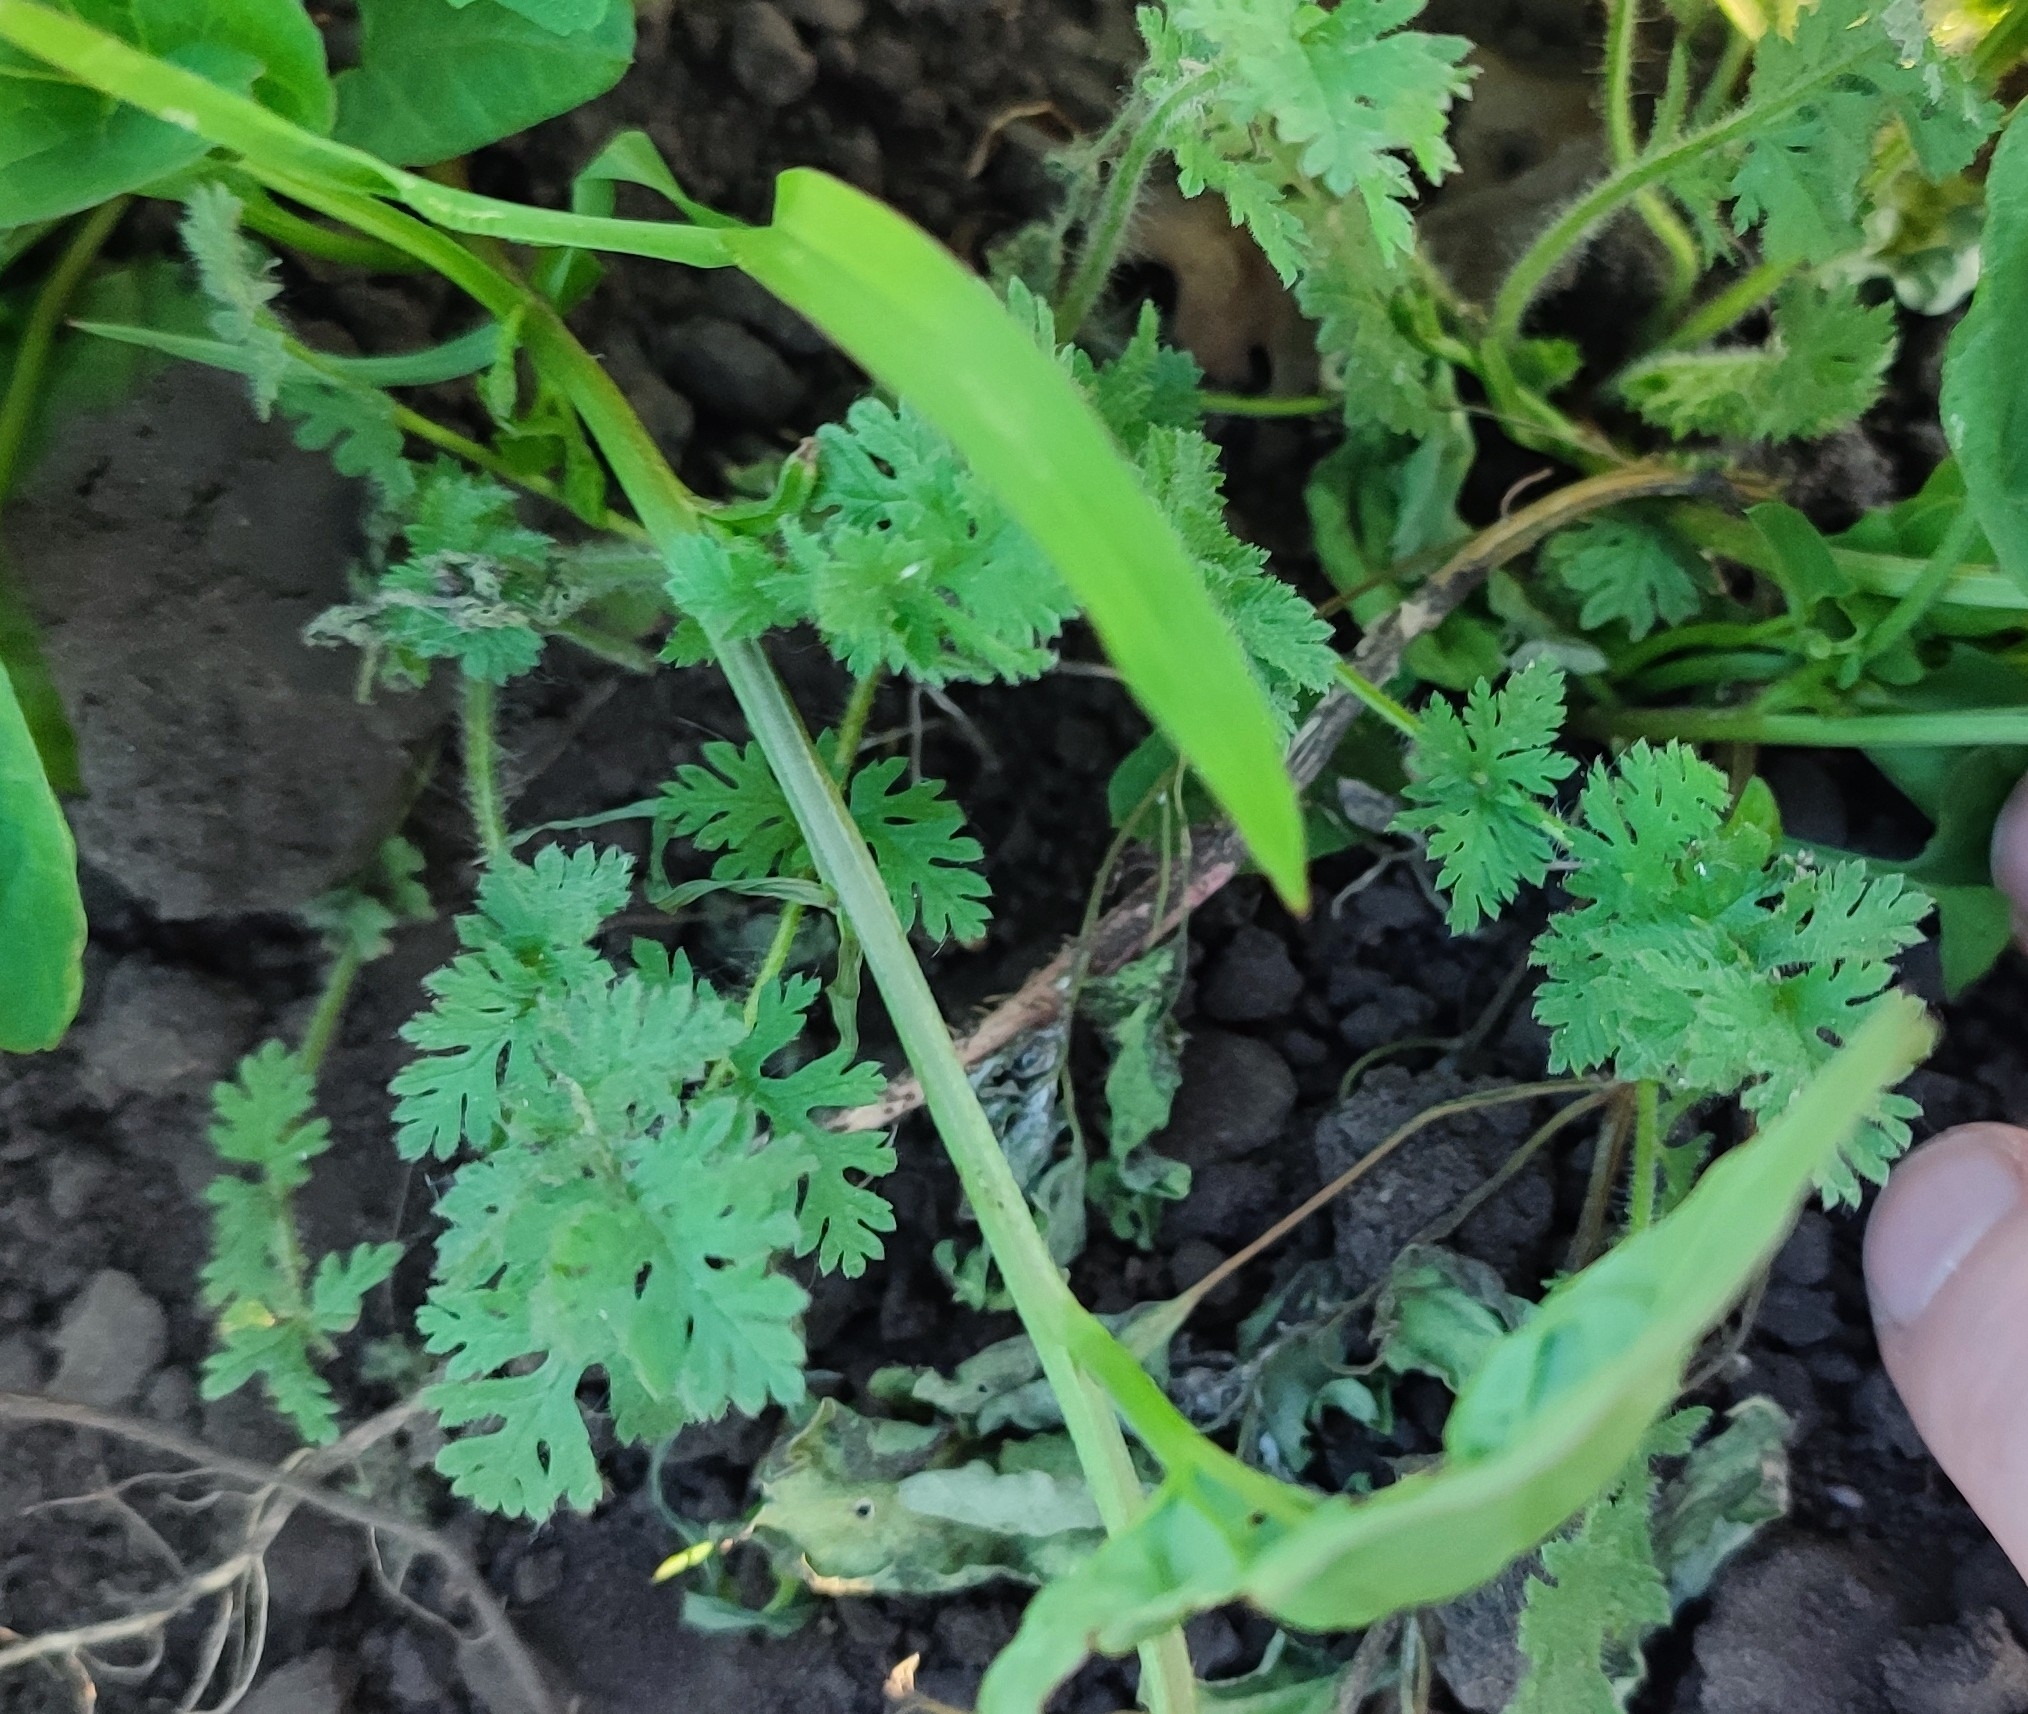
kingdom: Plantae
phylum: Tracheophyta
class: Magnoliopsida
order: Geraniales
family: Geraniaceae
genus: Erodium
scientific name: Erodium cicutarium
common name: Common stork's-bill
